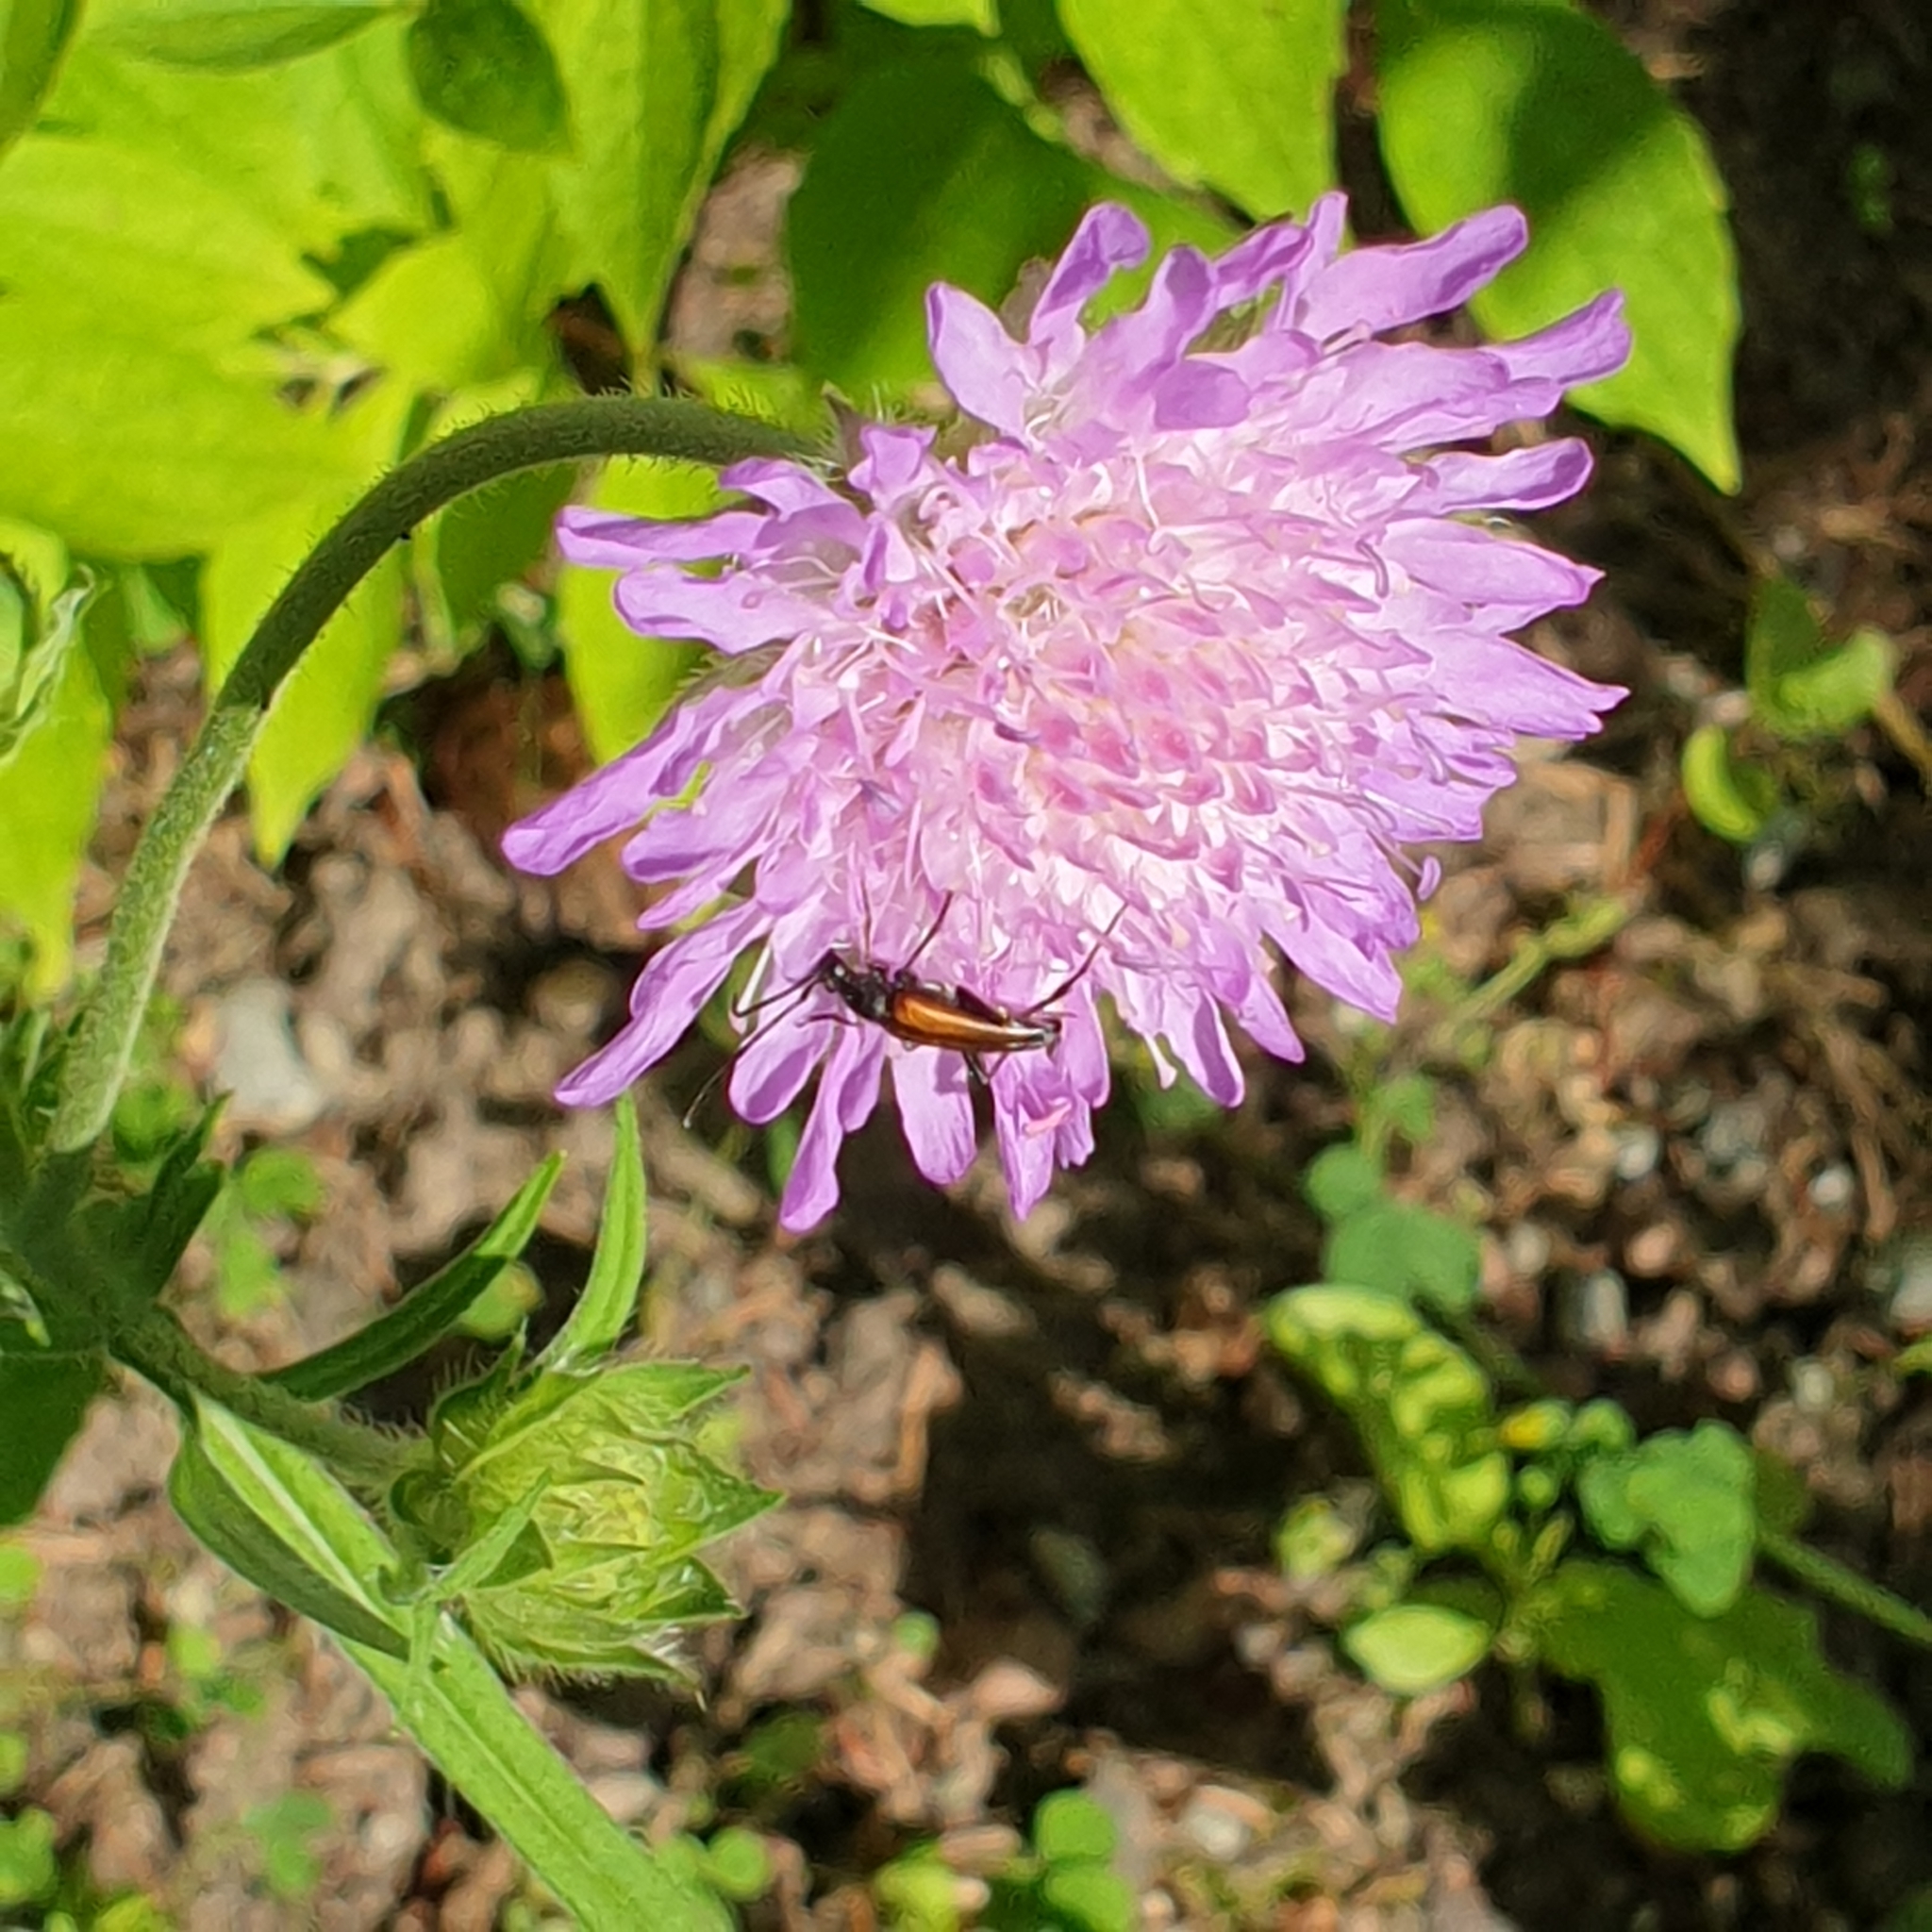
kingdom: Plantae
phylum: Tracheophyta
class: Magnoliopsida
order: Dipsacales
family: Caprifoliaceae
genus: Knautia
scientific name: Knautia arvensis
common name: Field scabiosa
